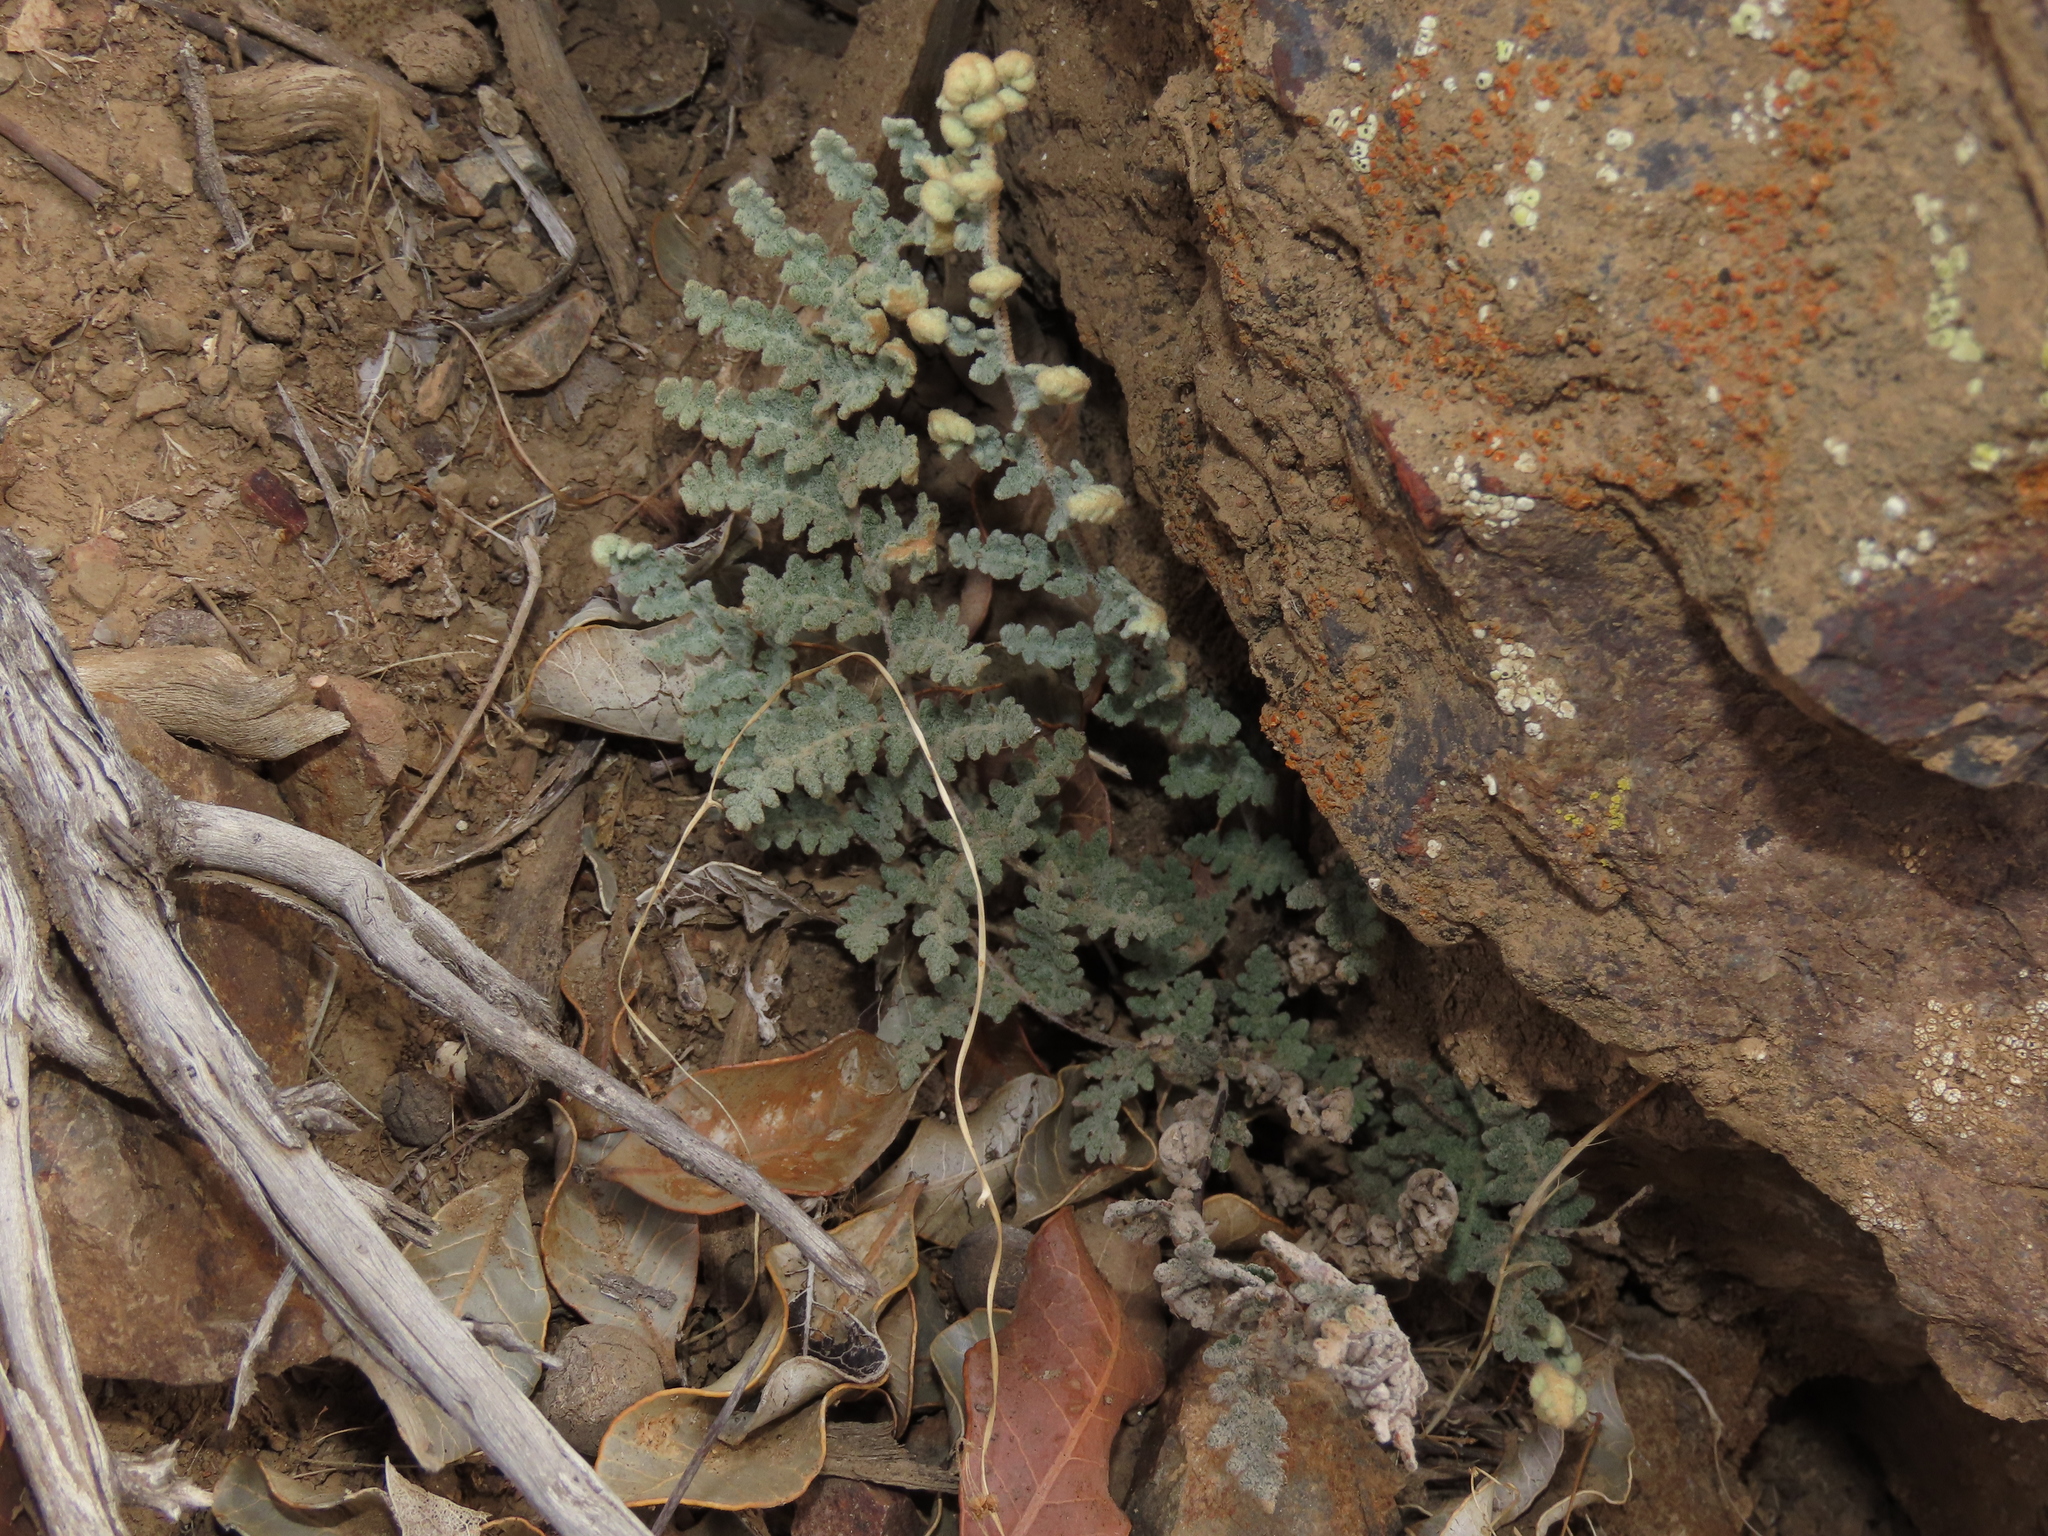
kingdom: Plantae
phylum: Tracheophyta
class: Polypodiopsida
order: Polypodiales
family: Pteridaceae
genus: Cheilanthes
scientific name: Cheilanthes mollis
